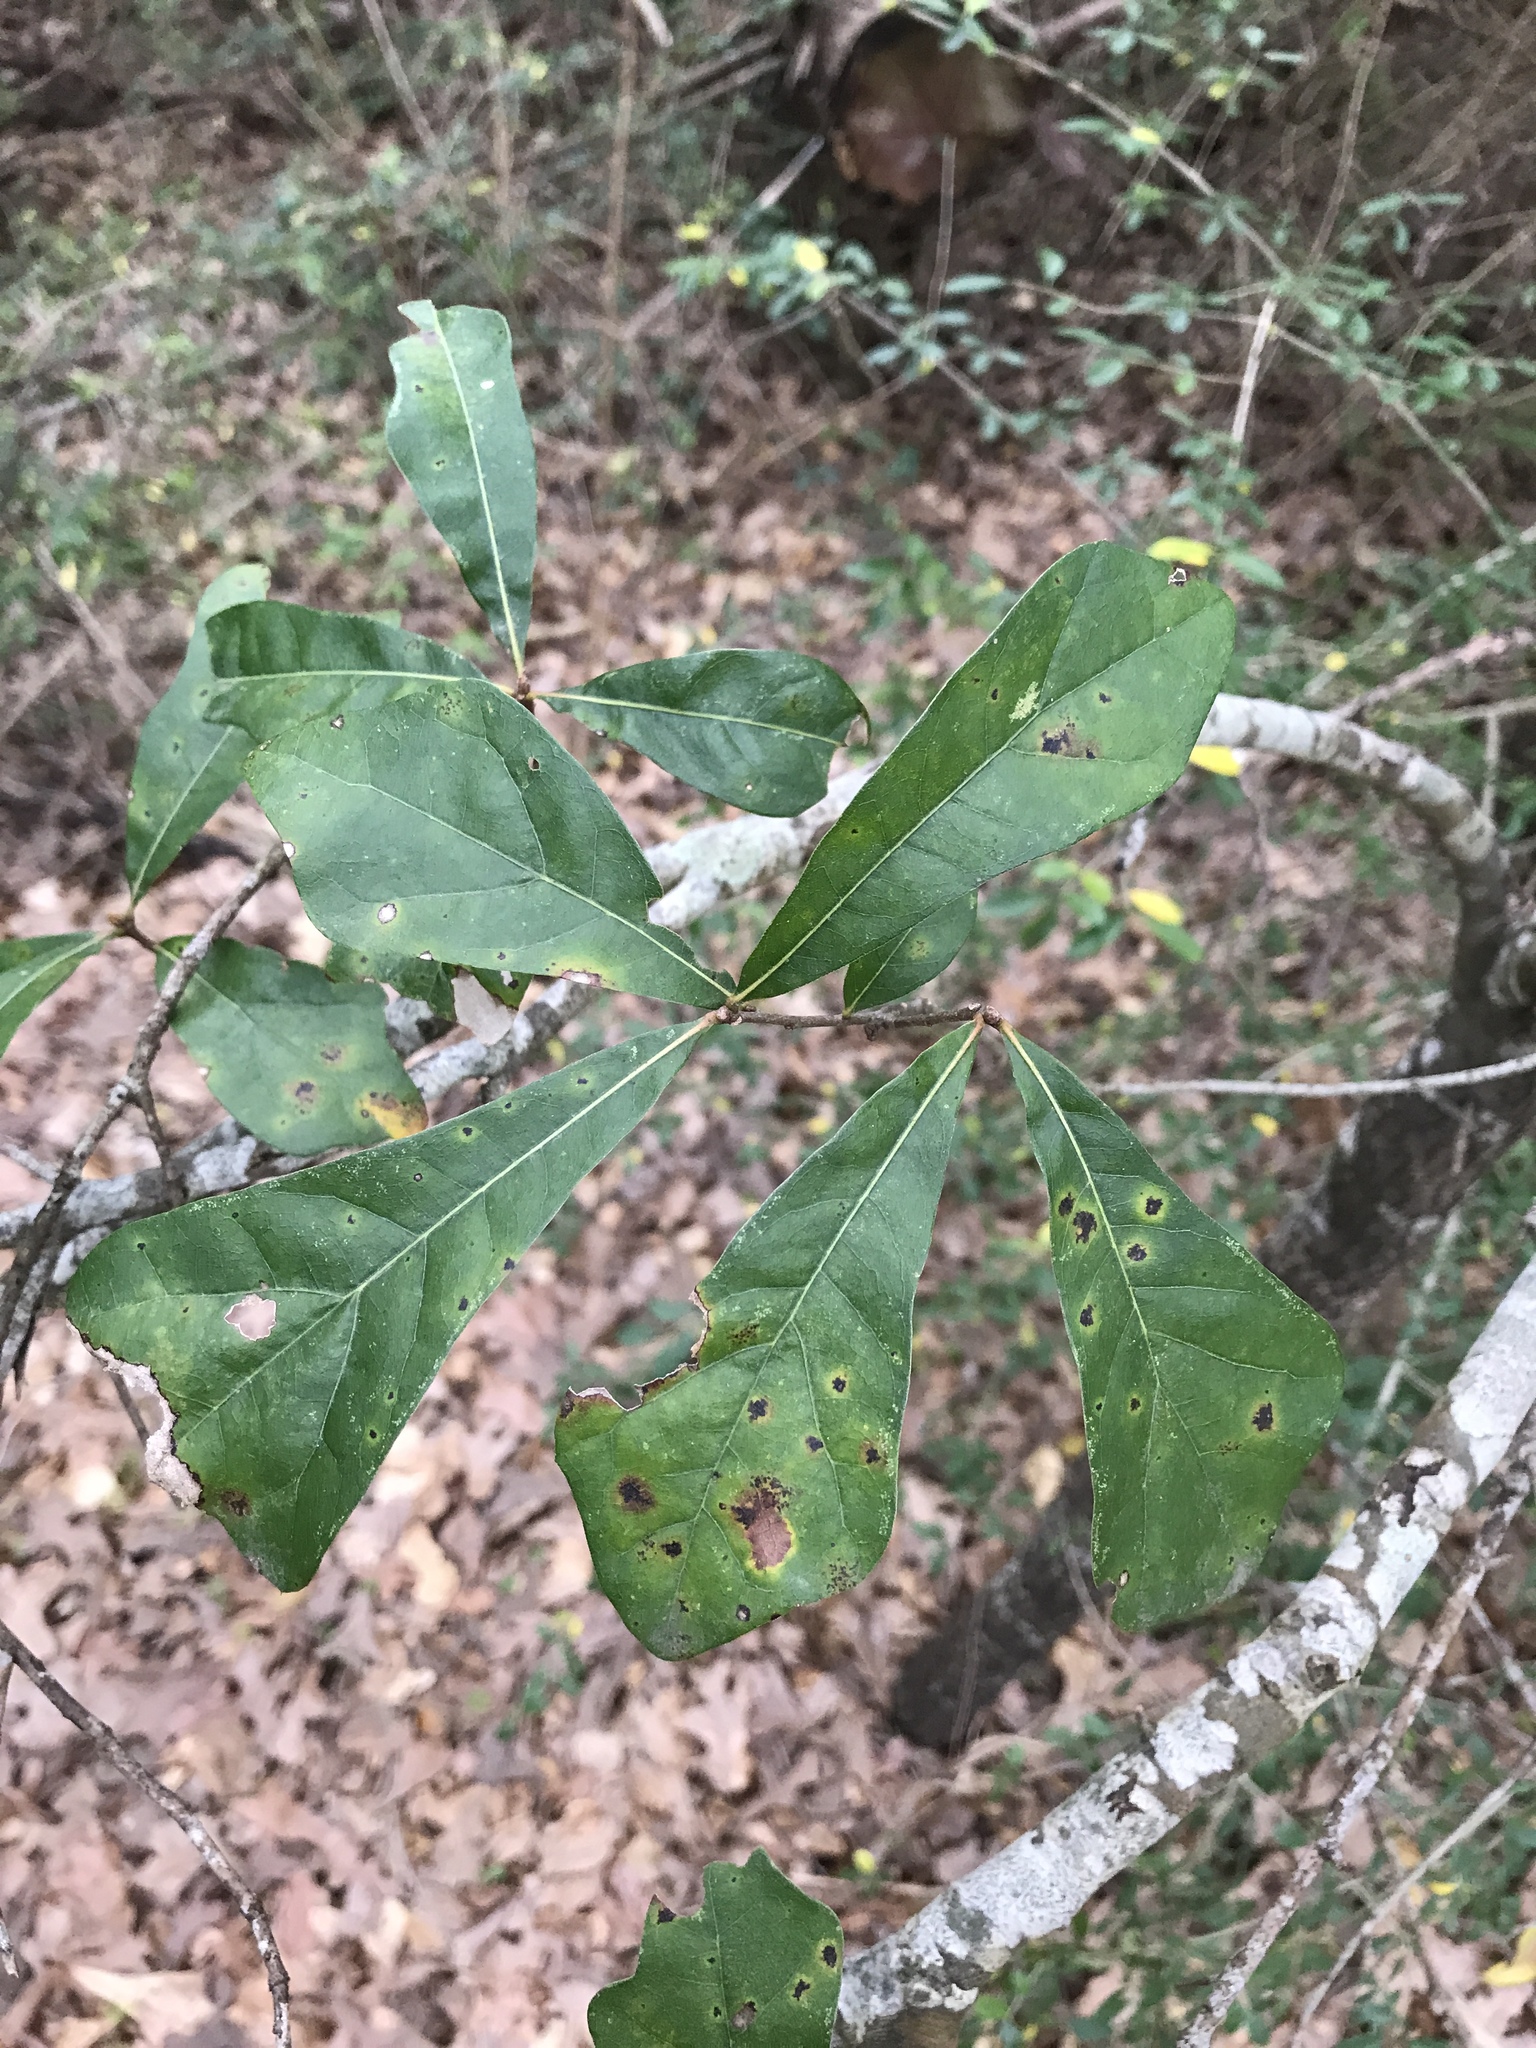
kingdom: Plantae
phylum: Tracheophyta
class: Magnoliopsida
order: Fagales
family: Fagaceae
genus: Quercus
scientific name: Quercus nigra
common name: Water oak
